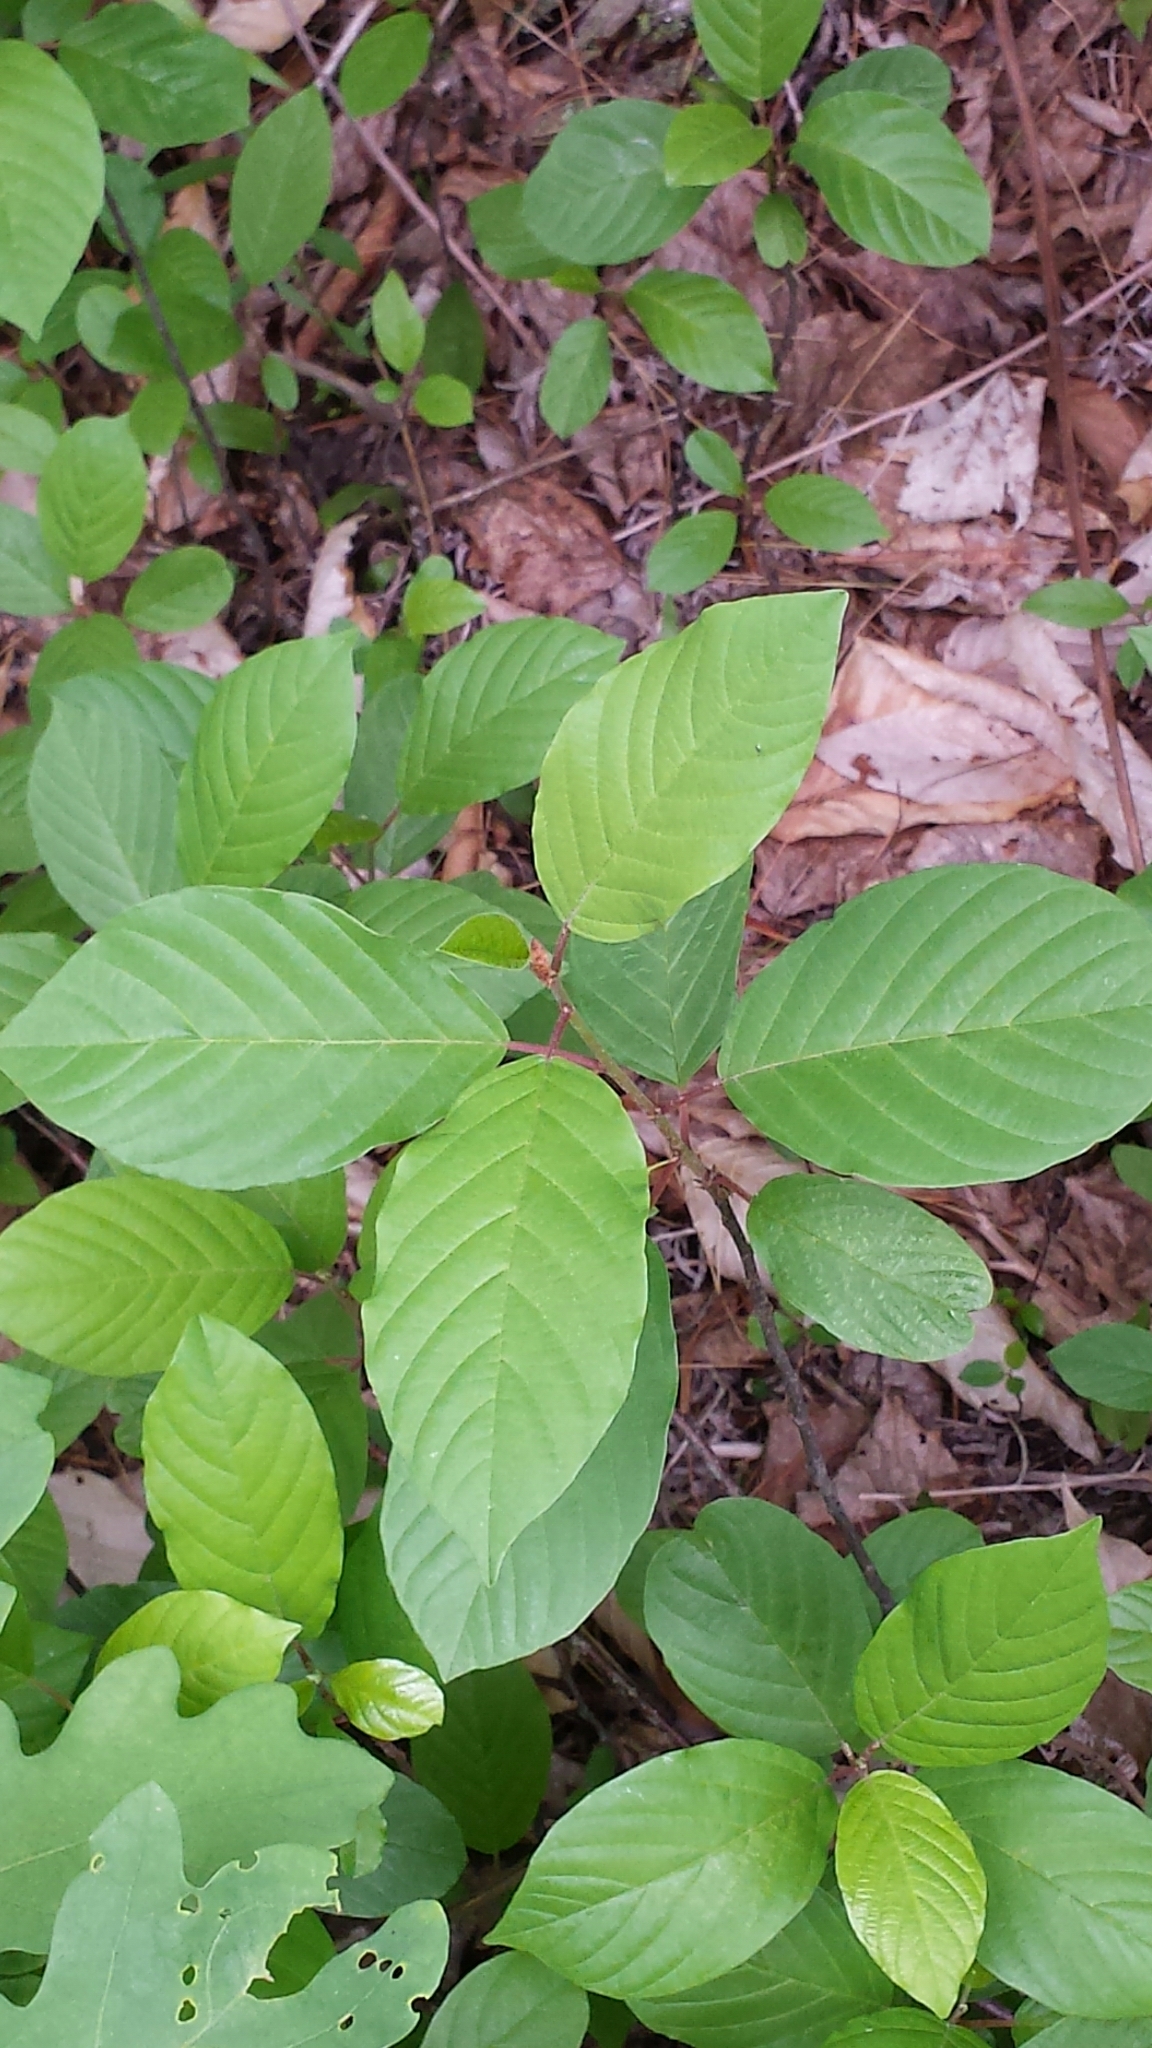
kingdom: Plantae
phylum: Tracheophyta
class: Magnoliopsida
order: Rosales
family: Rhamnaceae
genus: Frangula
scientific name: Frangula alnus
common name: Alder buckthorn
